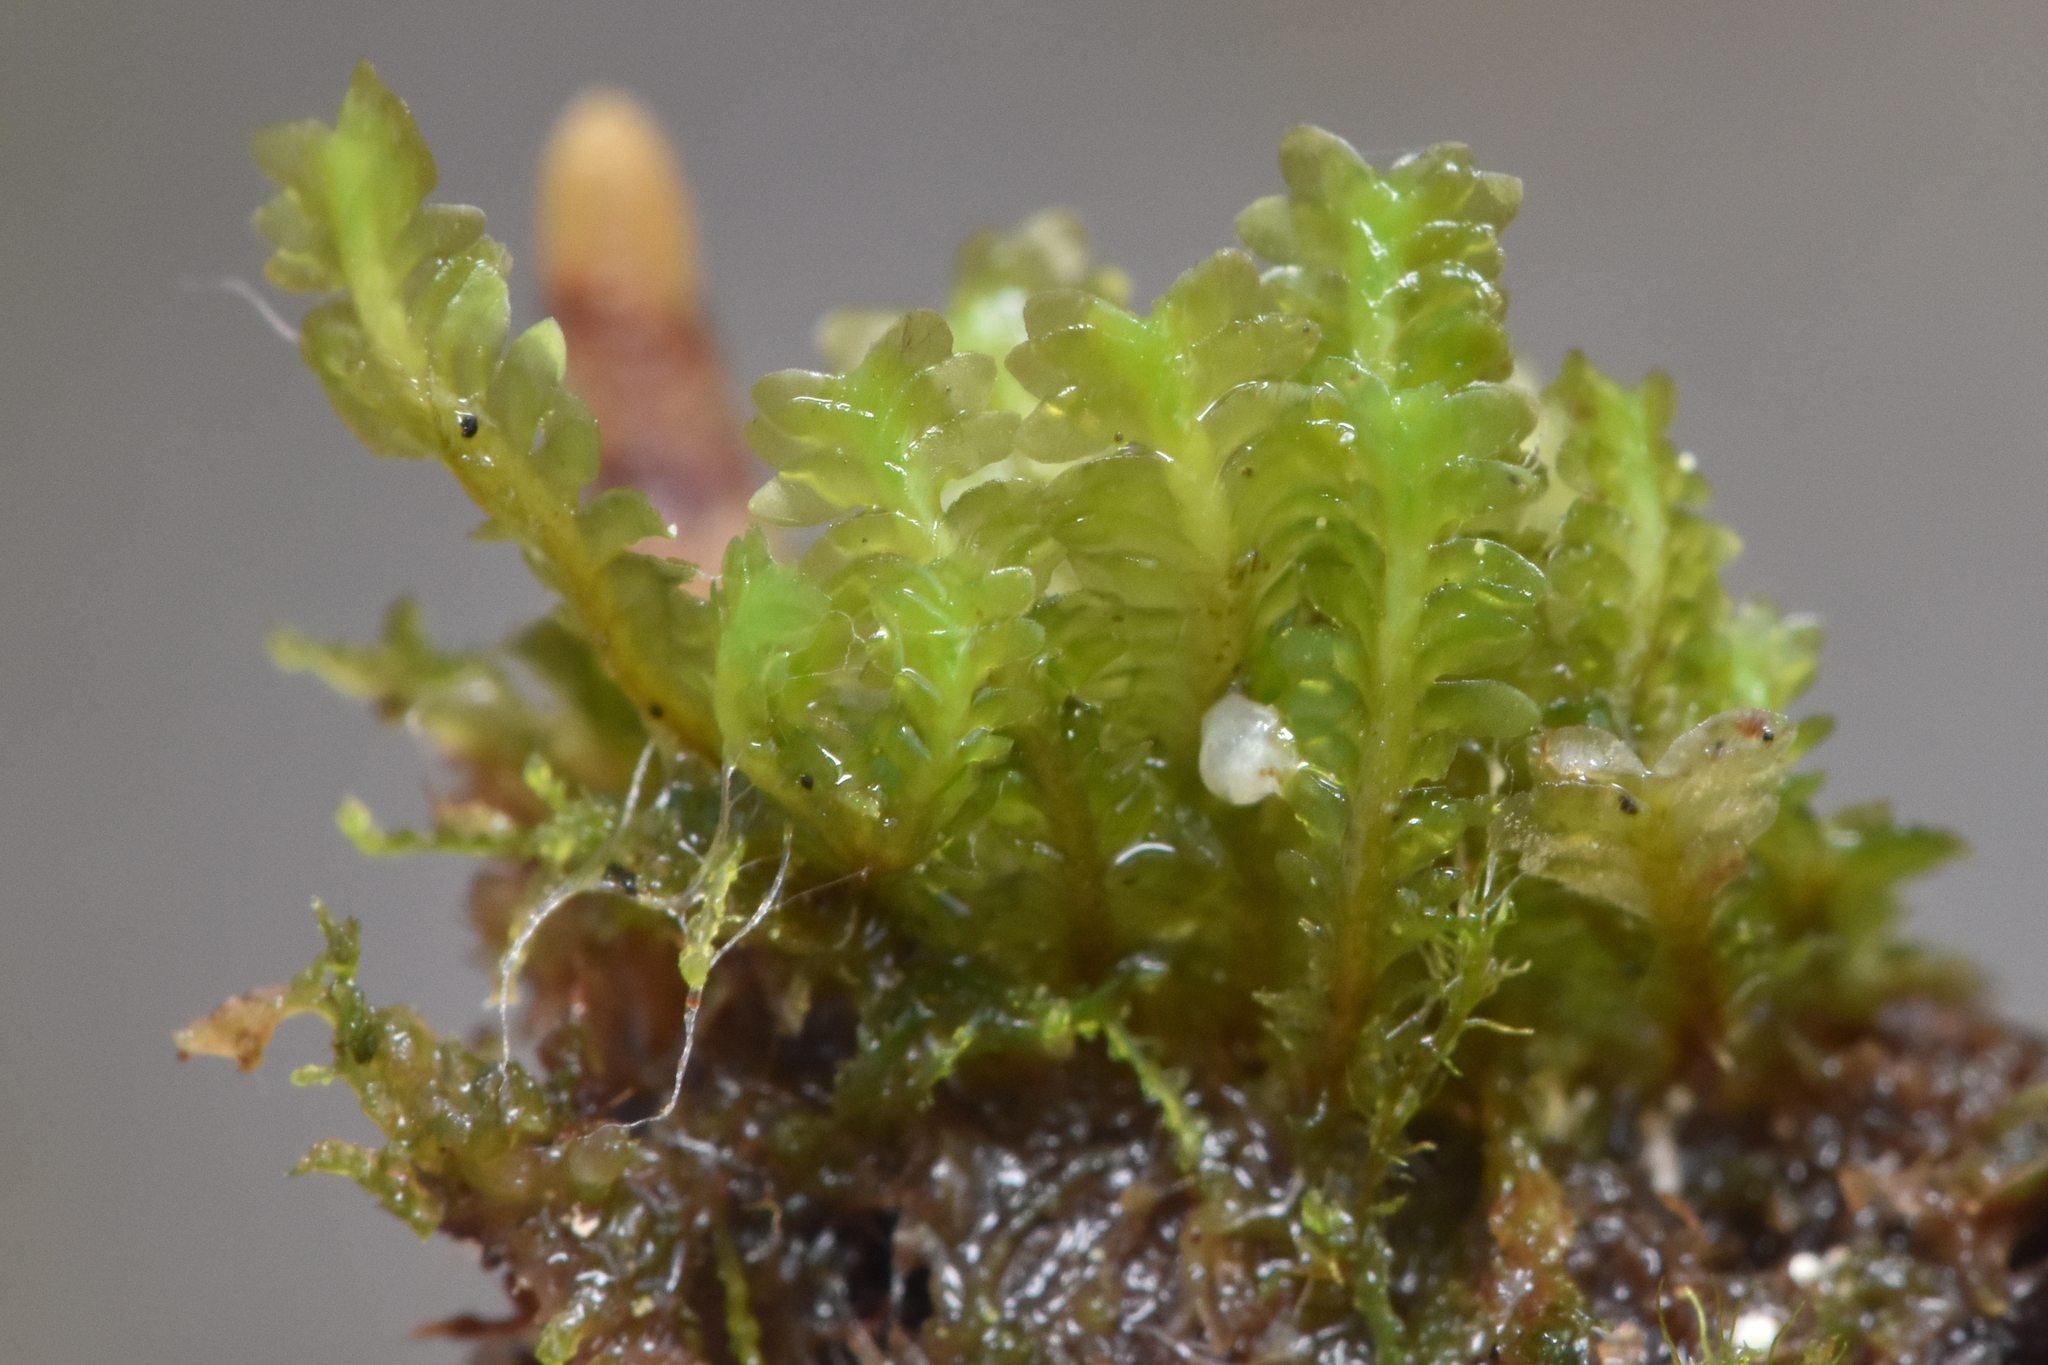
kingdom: Plantae
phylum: Marchantiophyta
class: Jungermanniopsida
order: Jungermanniales
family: Scapaniaceae
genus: Diplophyllum
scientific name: Diplophyllum taxifolium
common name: Alpine earwort
